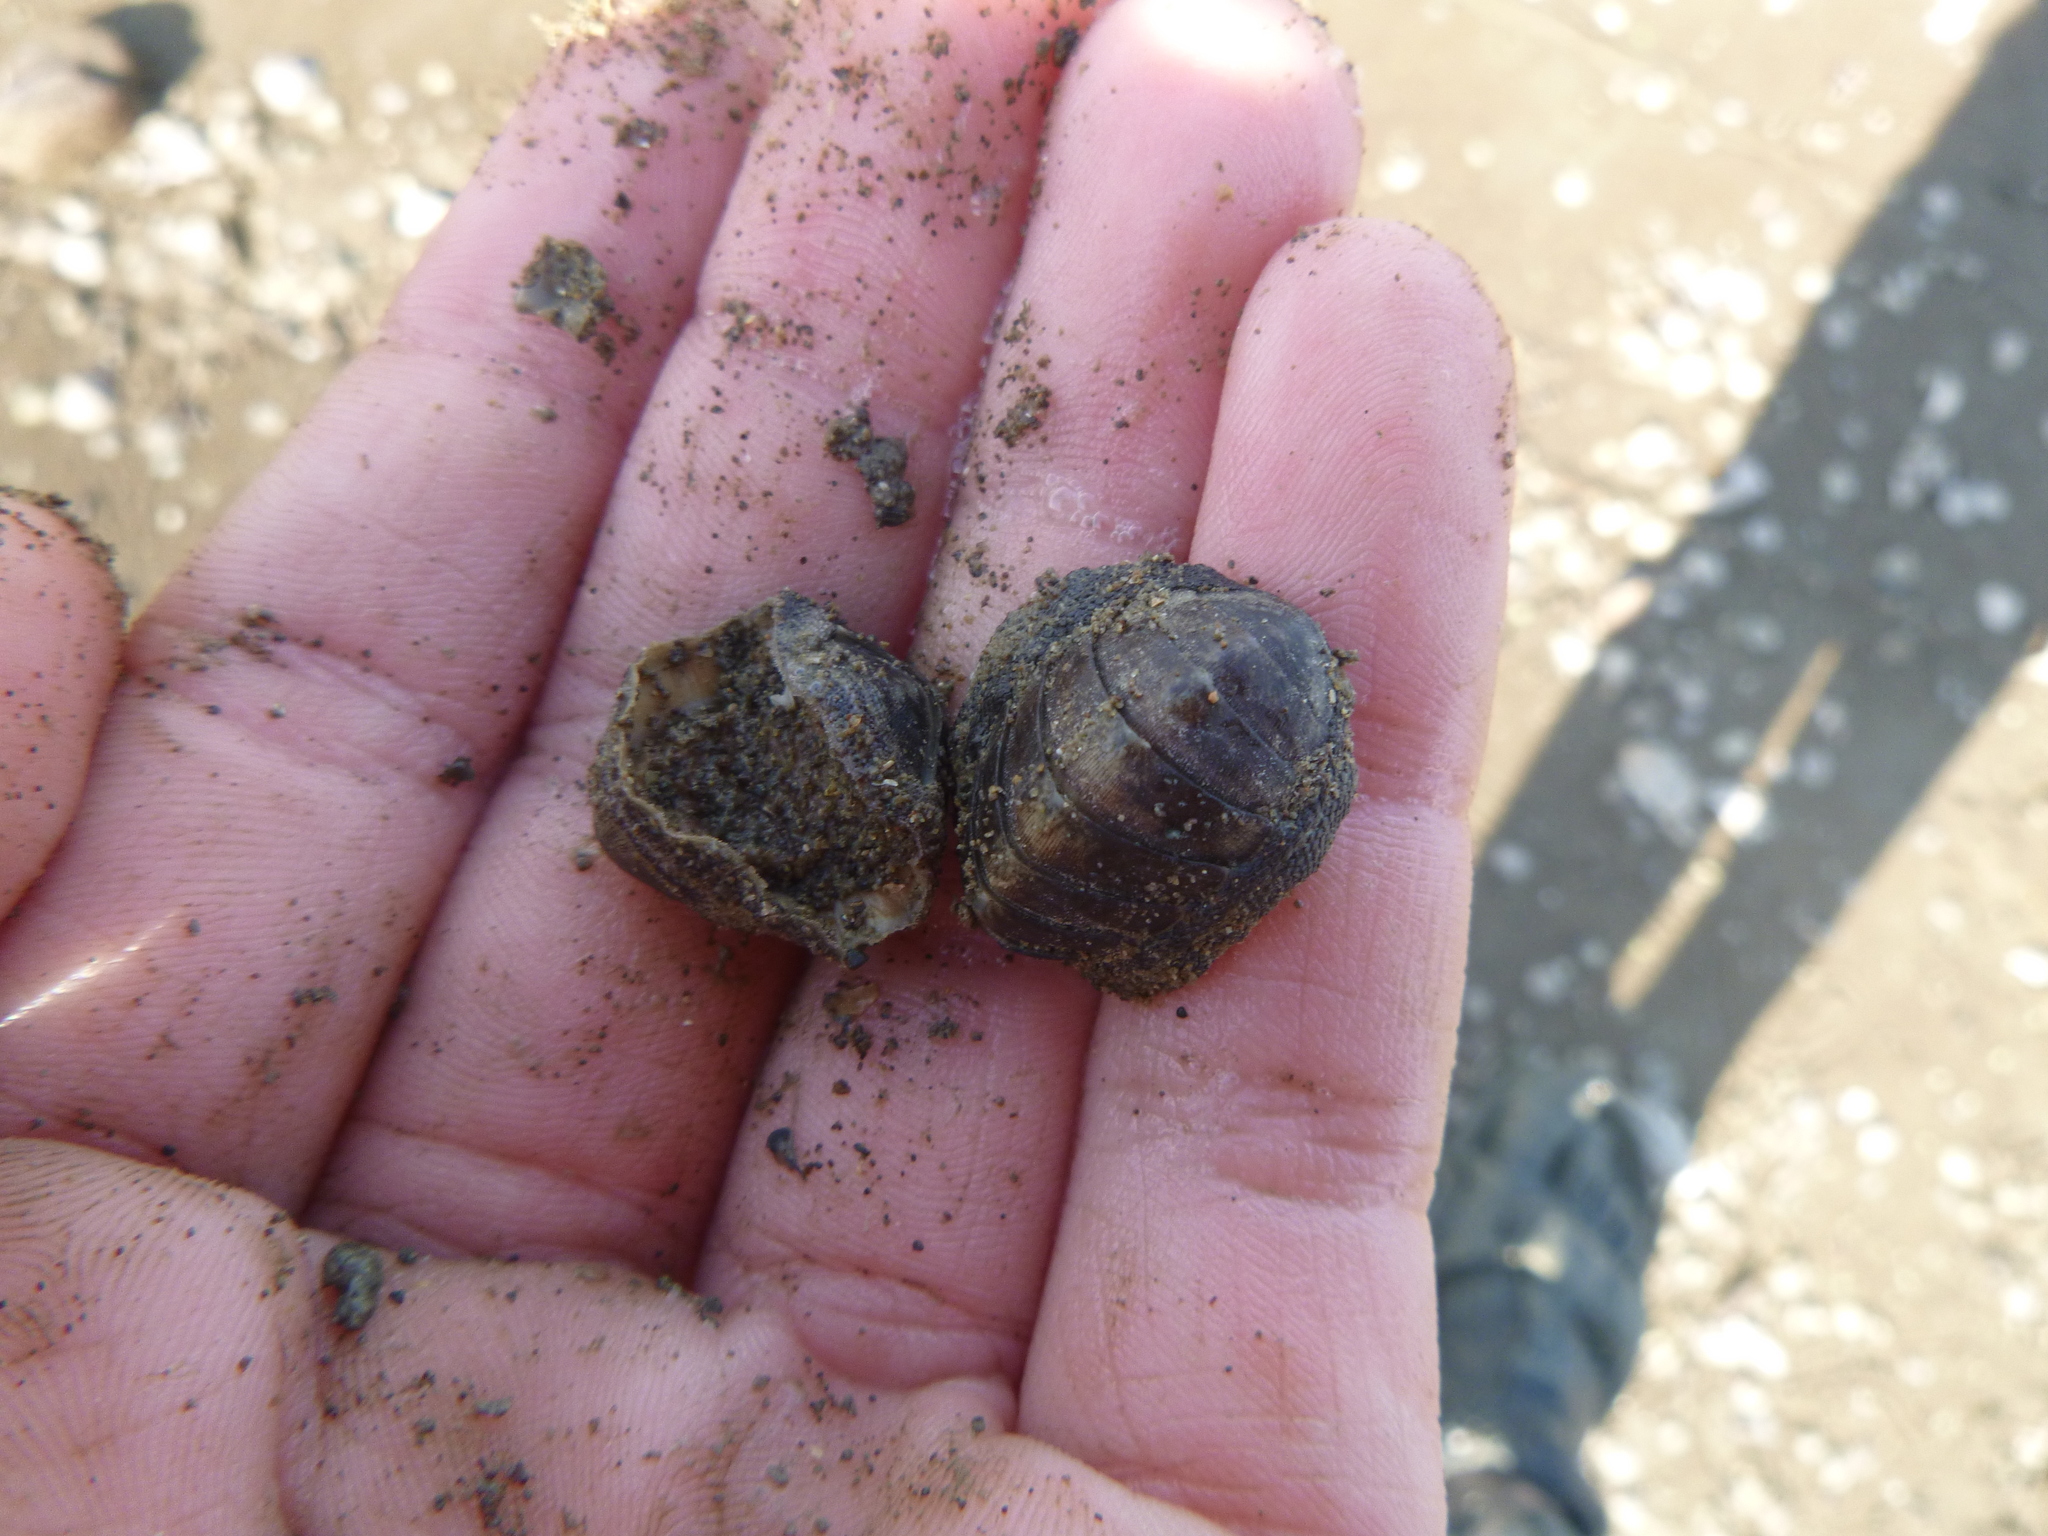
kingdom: Animalia
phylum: Mollusca
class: Polyplacophora
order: Chitonida
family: Chitonidae
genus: Chiton
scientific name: Chiton glaucus
